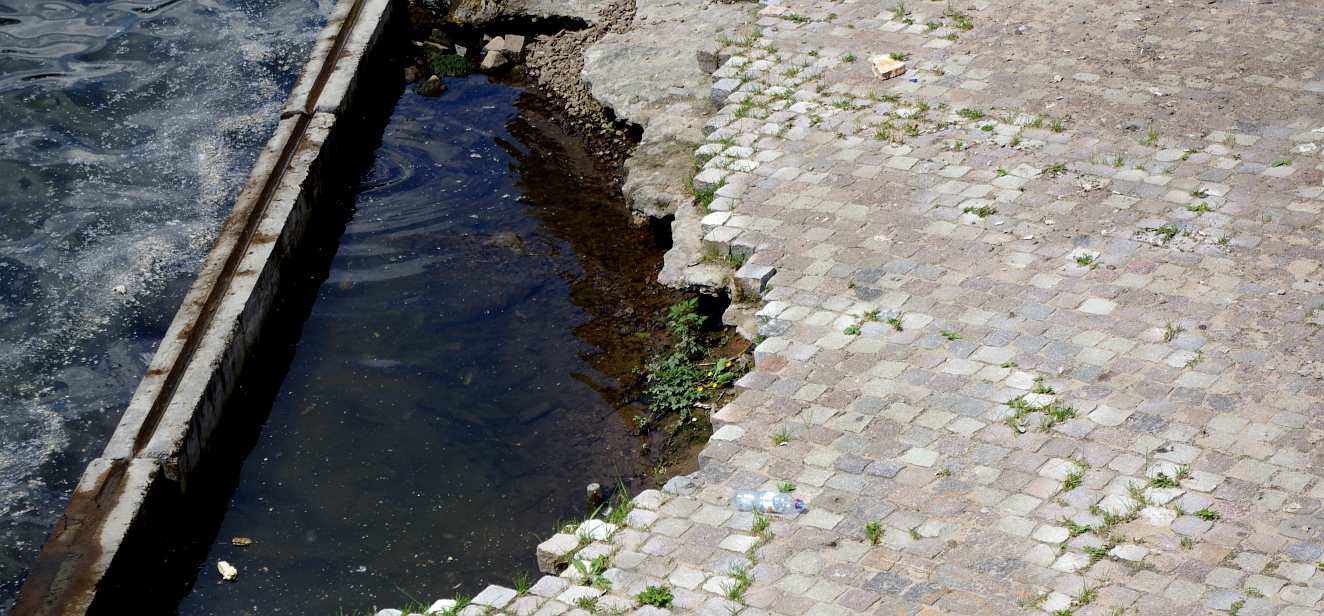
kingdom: Plantae
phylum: Tracheophyta
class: Magnoliopsida
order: Ranunculales
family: Ranunculaceae
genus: Ranunculus
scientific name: Ranunculus repens
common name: Creeping buttercup
